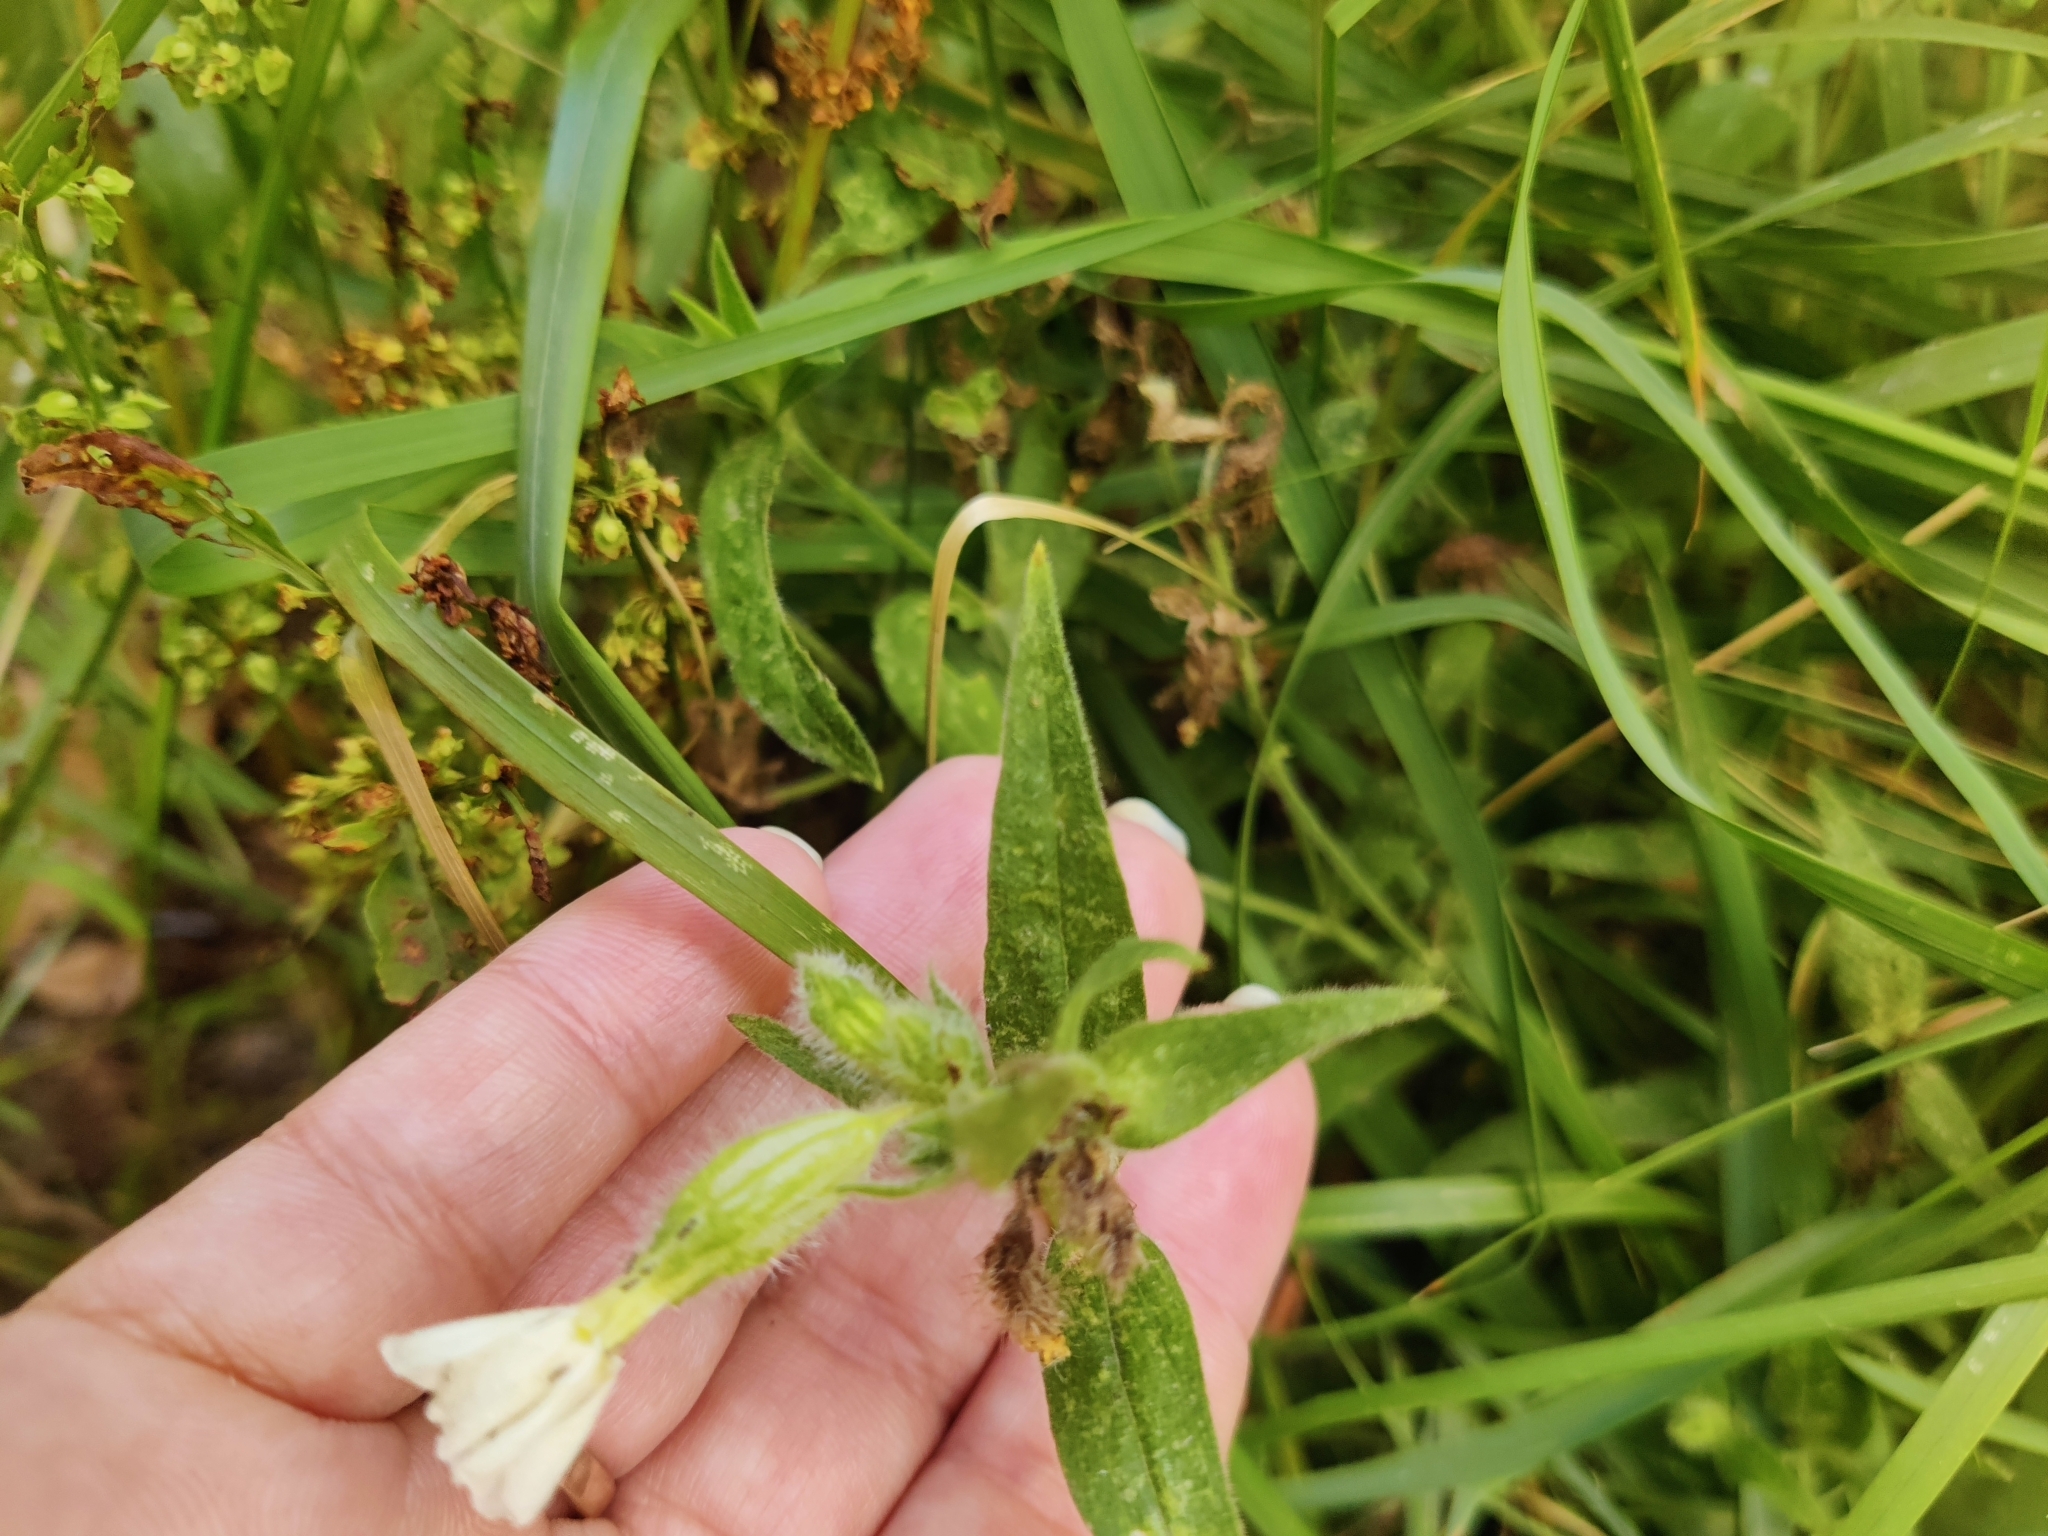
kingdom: Plantae
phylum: Tracheophyta
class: Magnoliopsida
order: Caryophyllales
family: Caryophyllaceae
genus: Silene
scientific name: Silene latifolia
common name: White campion
